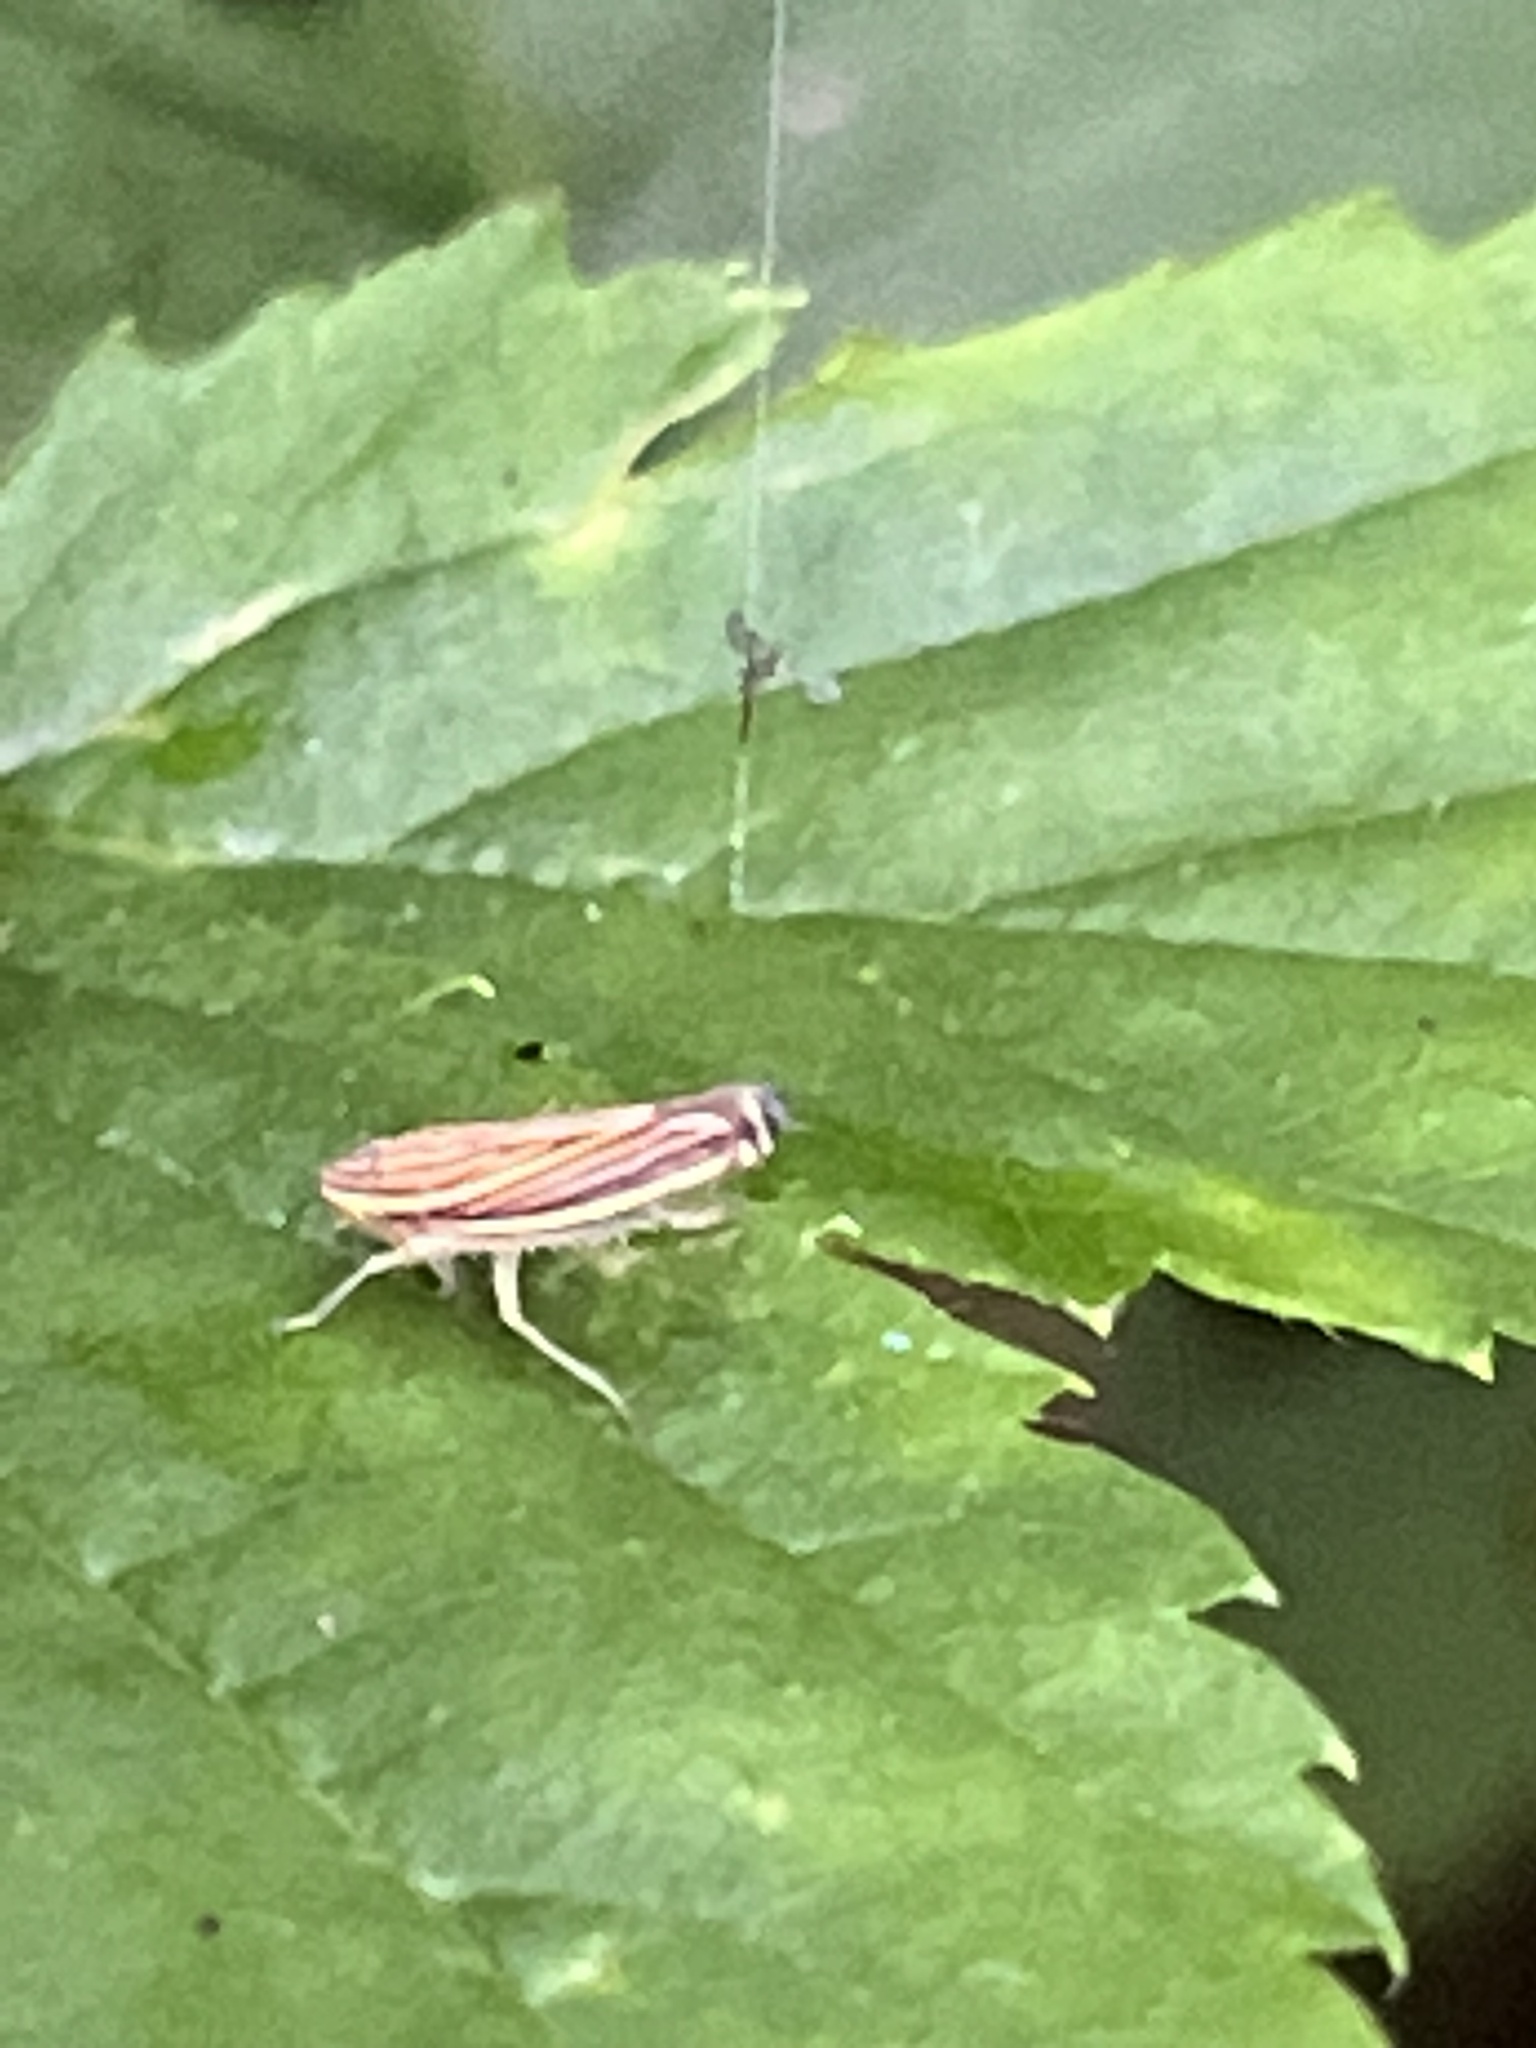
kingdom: Animalia
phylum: Arthropoda
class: Insecta
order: Hemiptera
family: Cicadellidae
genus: Sibovia
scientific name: Sibovia occatoria
